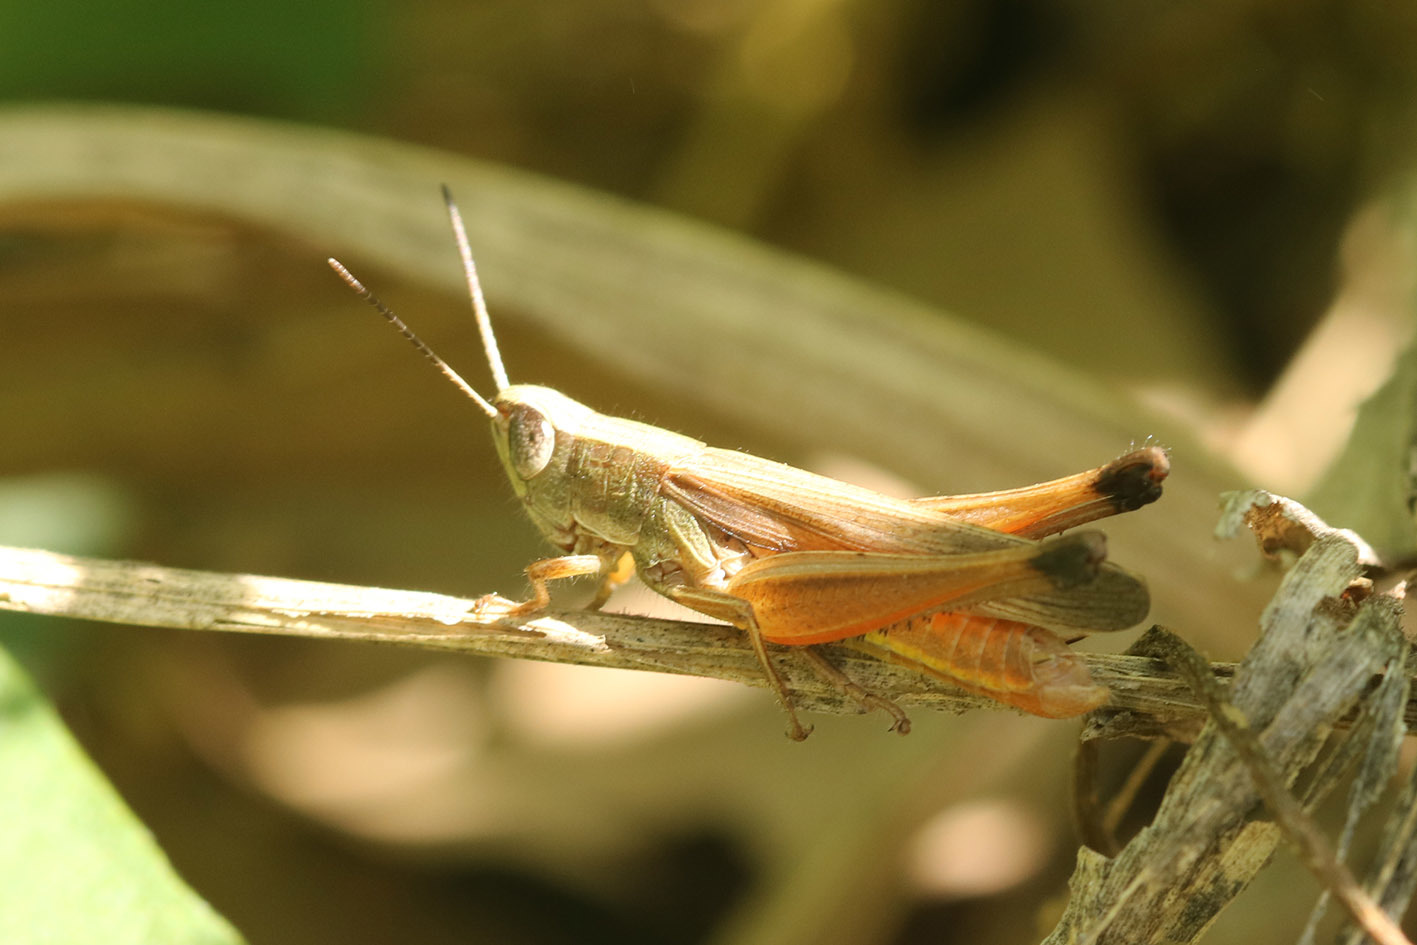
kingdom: Animalia
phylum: Arthropoda
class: Insecta
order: Orthoptera
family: Acrididae
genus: Amblytropidia
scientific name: Amblytropidia australis
